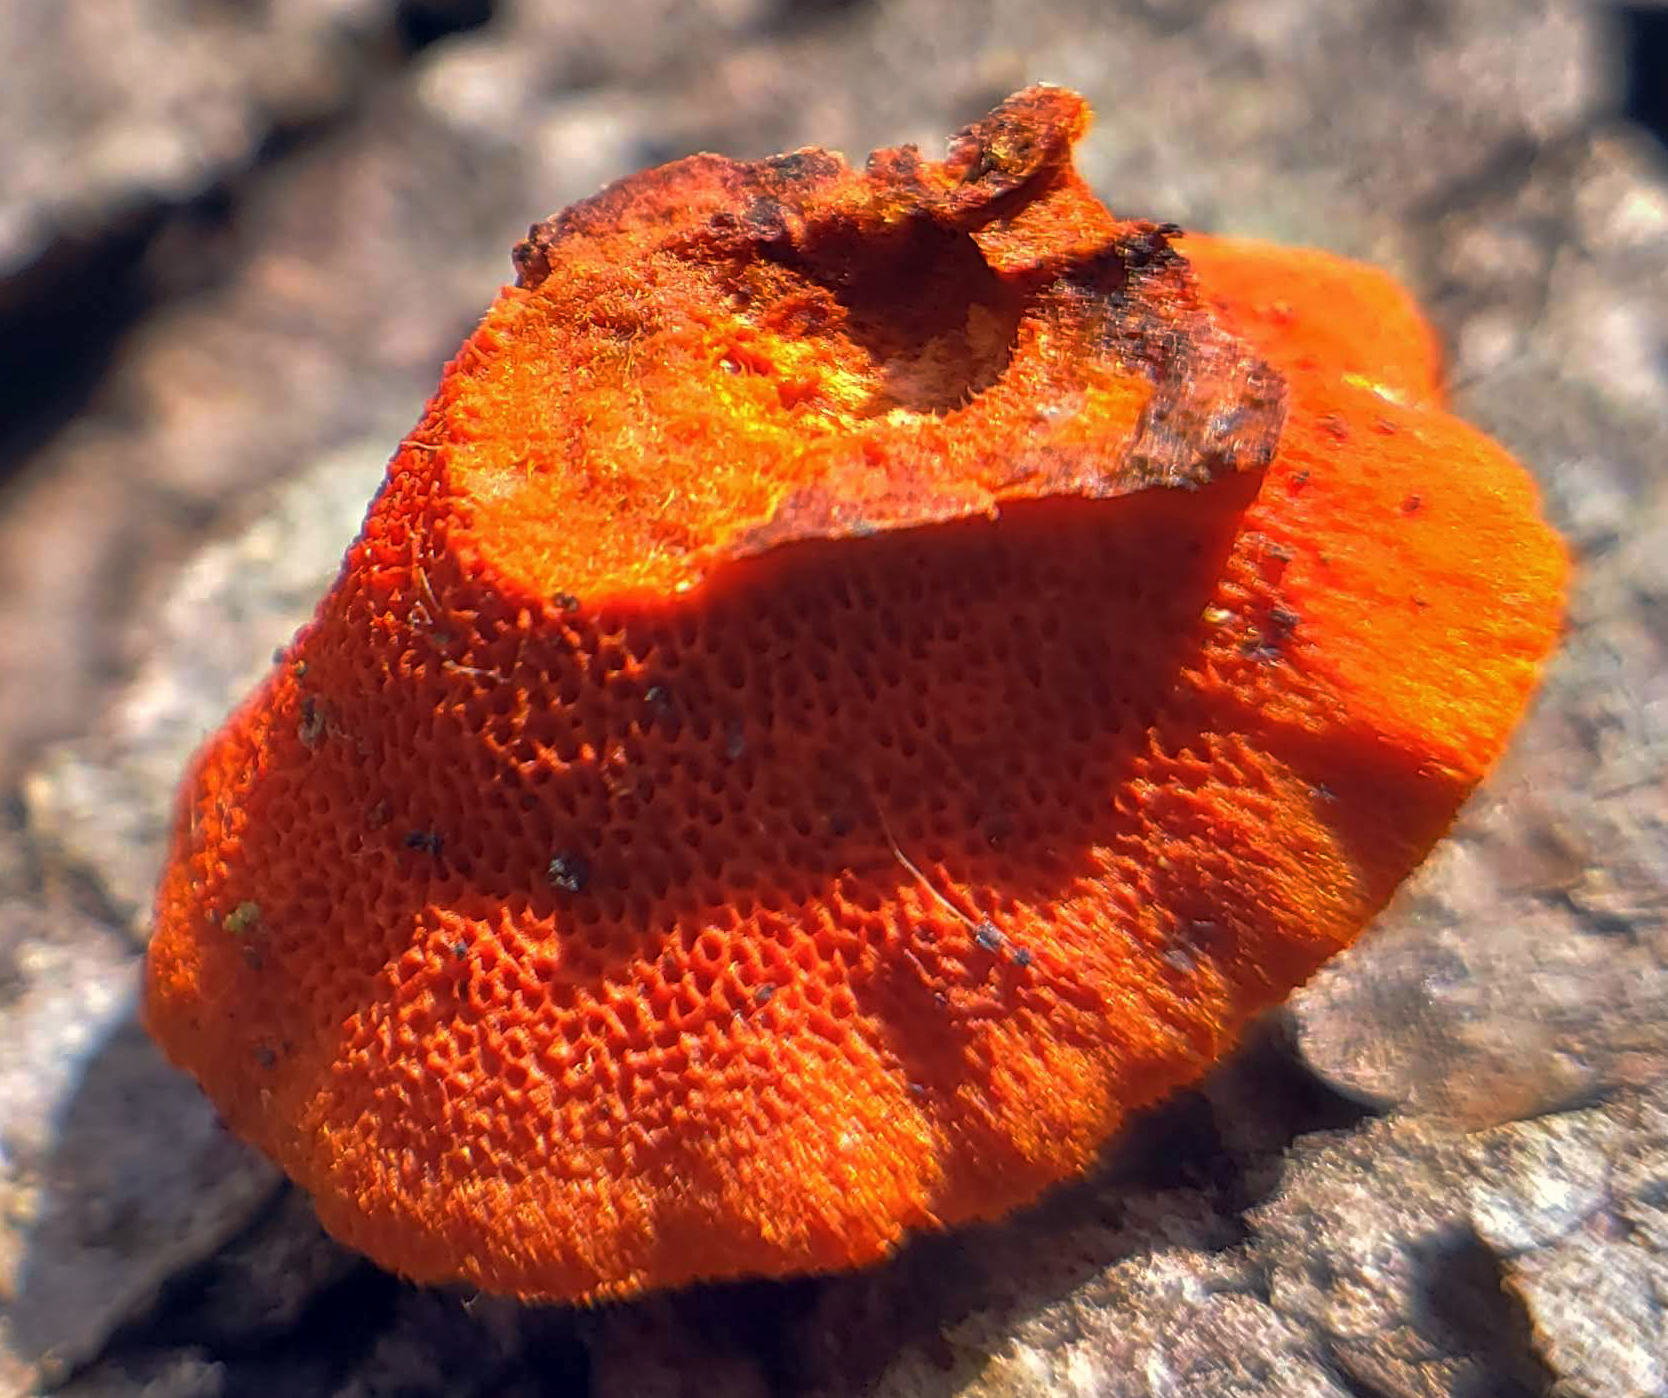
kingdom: Fungi
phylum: Basidiomycota
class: Agaricomycetes
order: Polyporales
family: Polyporaceae
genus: Trametes
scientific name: Trametes cinnabarina
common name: Northern cinnabar polypore
